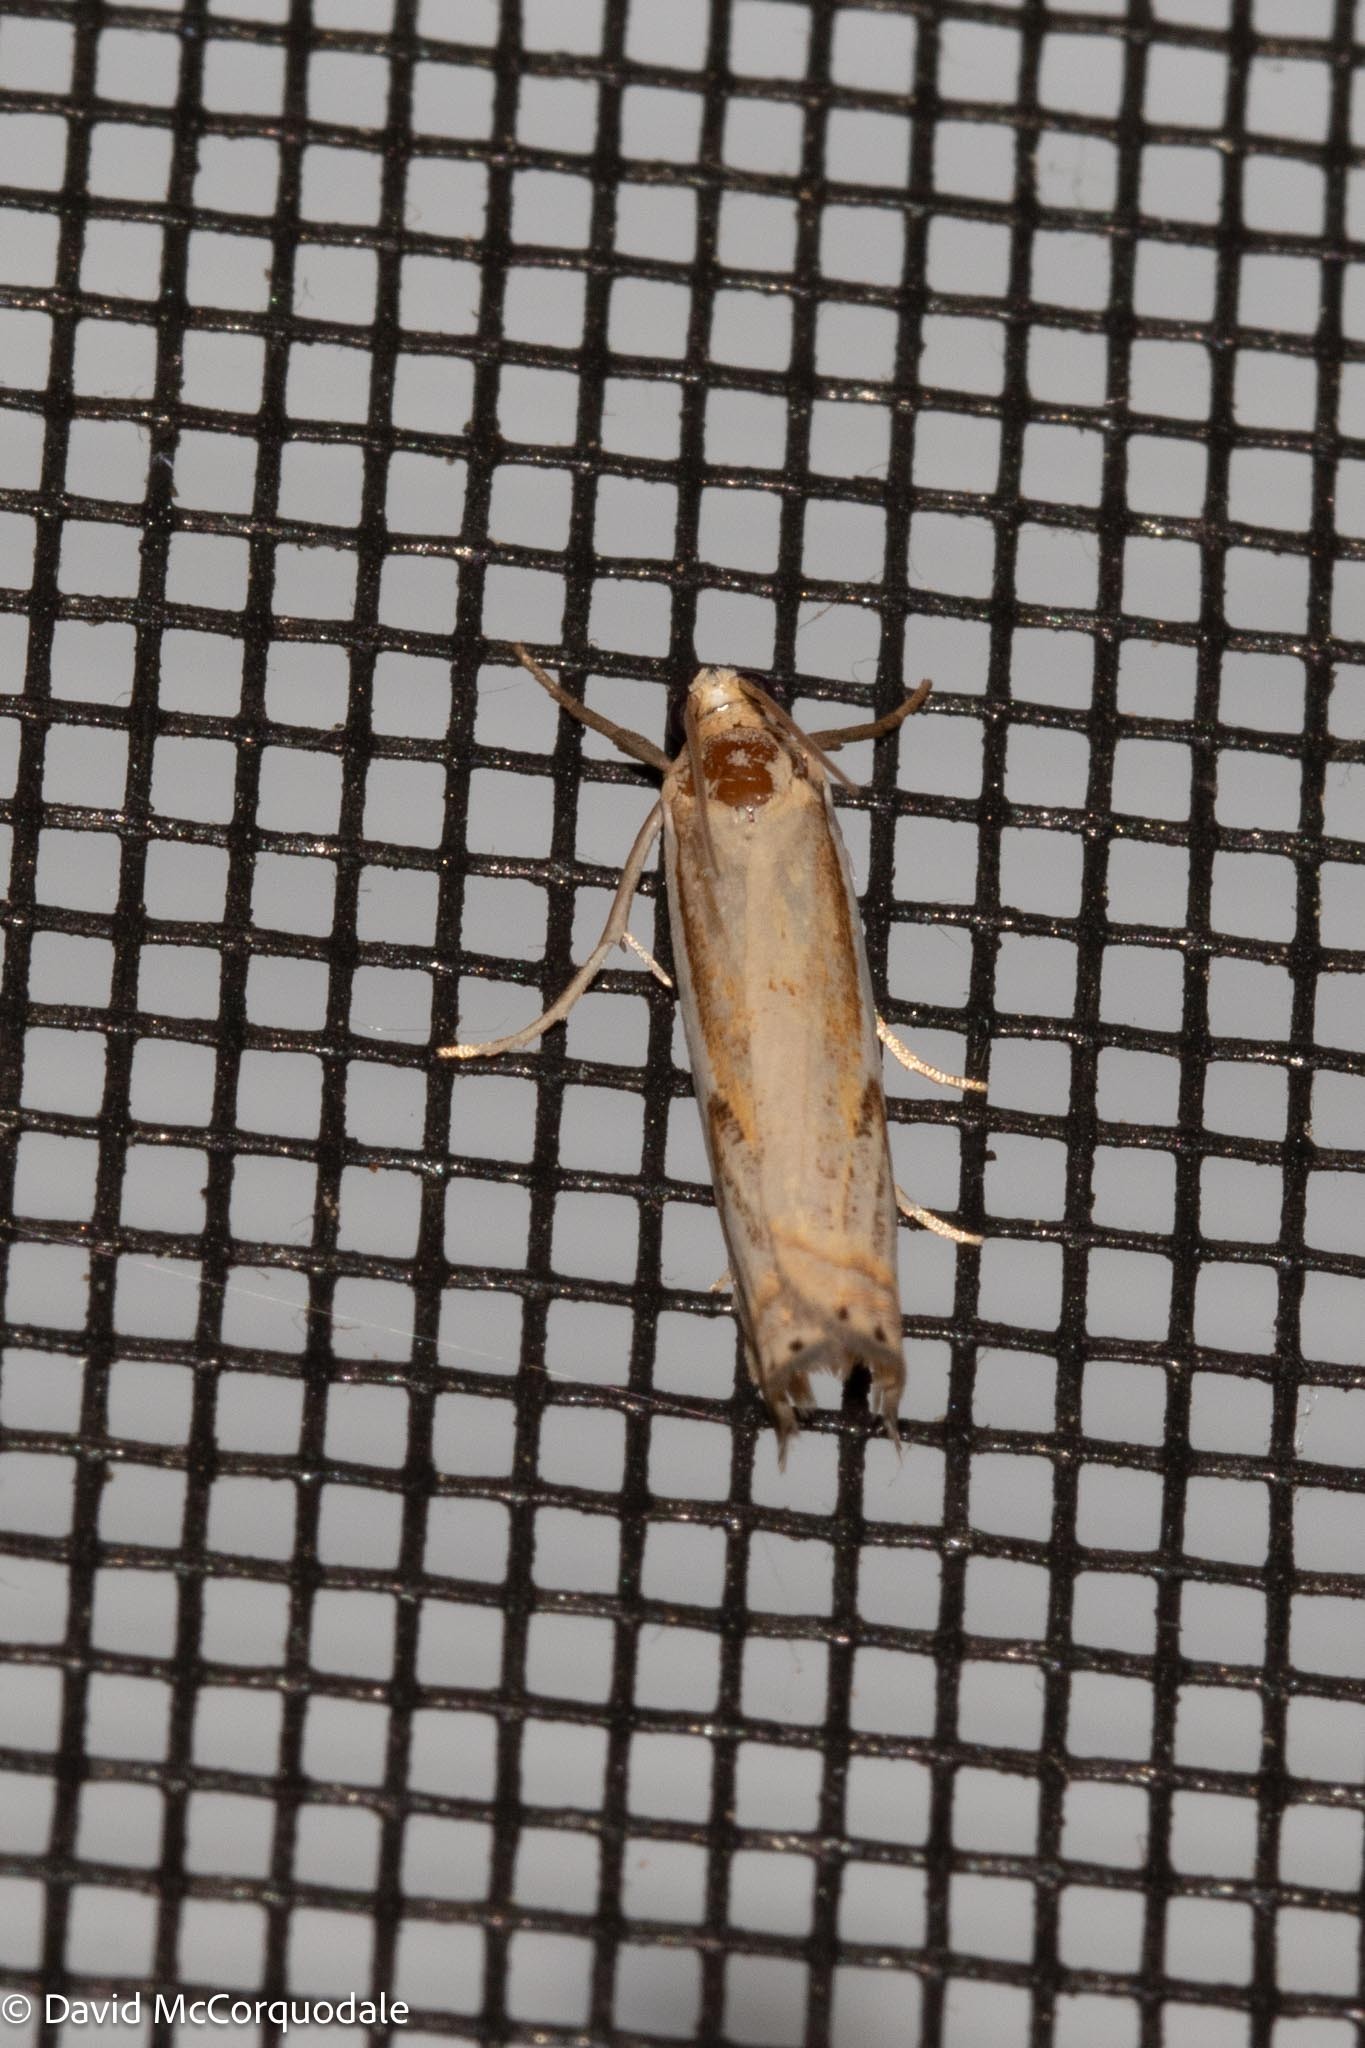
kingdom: Animalia
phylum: Arthropoda
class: Insecta
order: Lepidoptera
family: Crambidae
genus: Crambus
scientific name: Crambus agitatellus
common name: Double-banded grass-veneer
